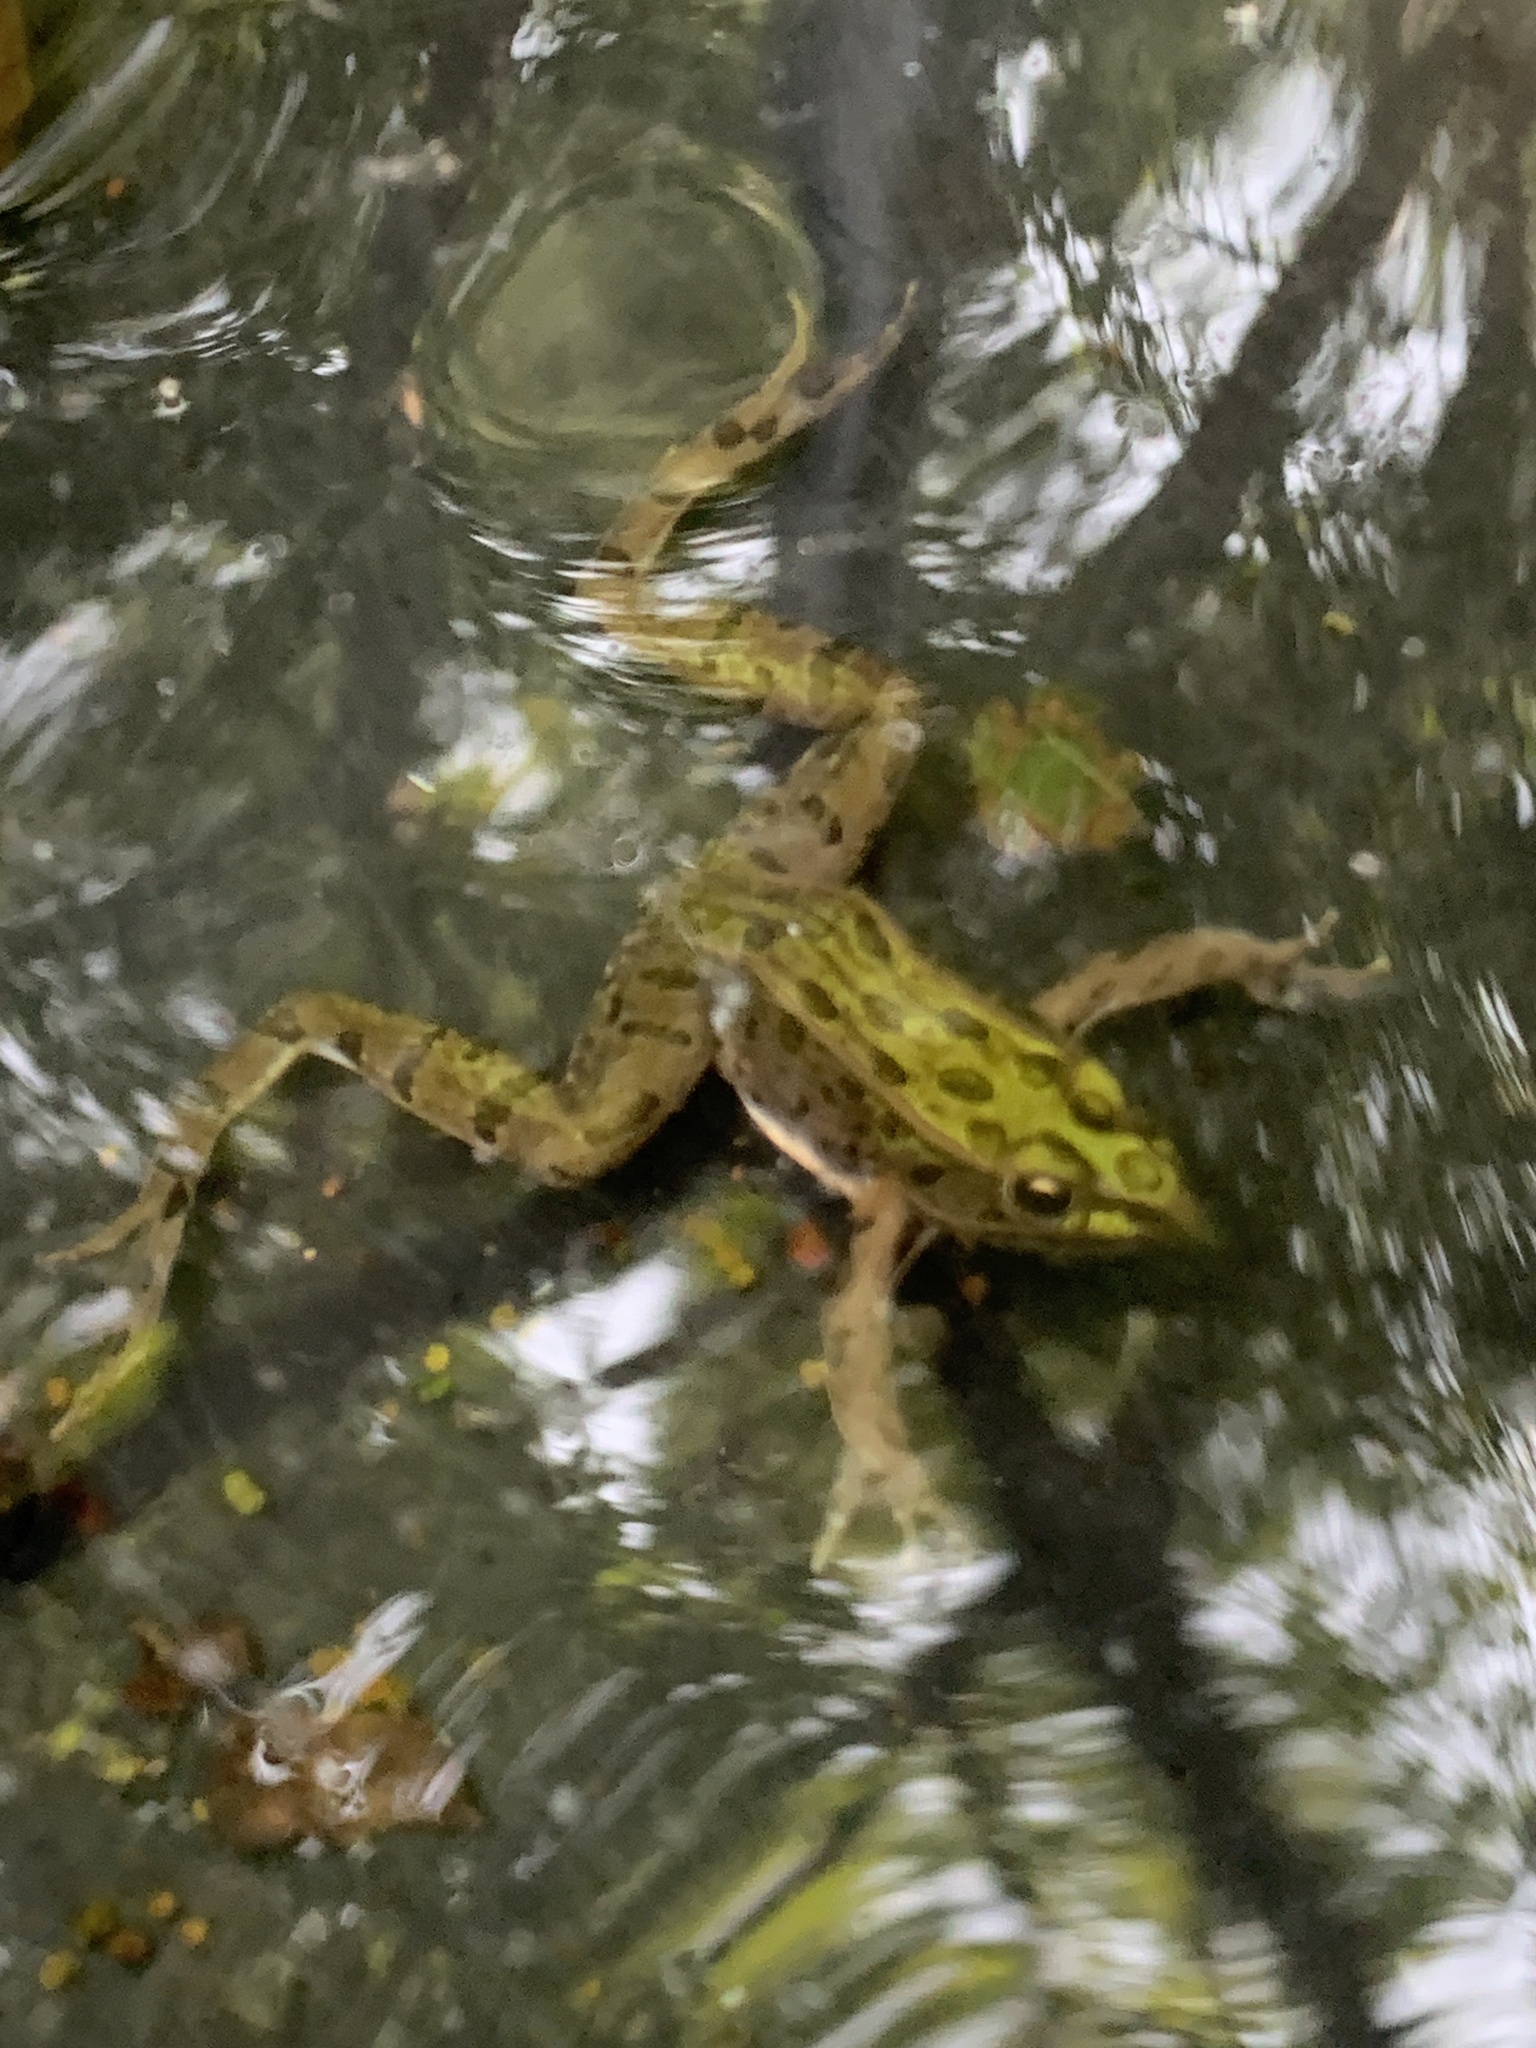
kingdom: Animalia
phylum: Chordata
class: Amphibia
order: Anura
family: Ranidae
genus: Lithobates
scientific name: Lithobates pipiens
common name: Northern leopard frog
